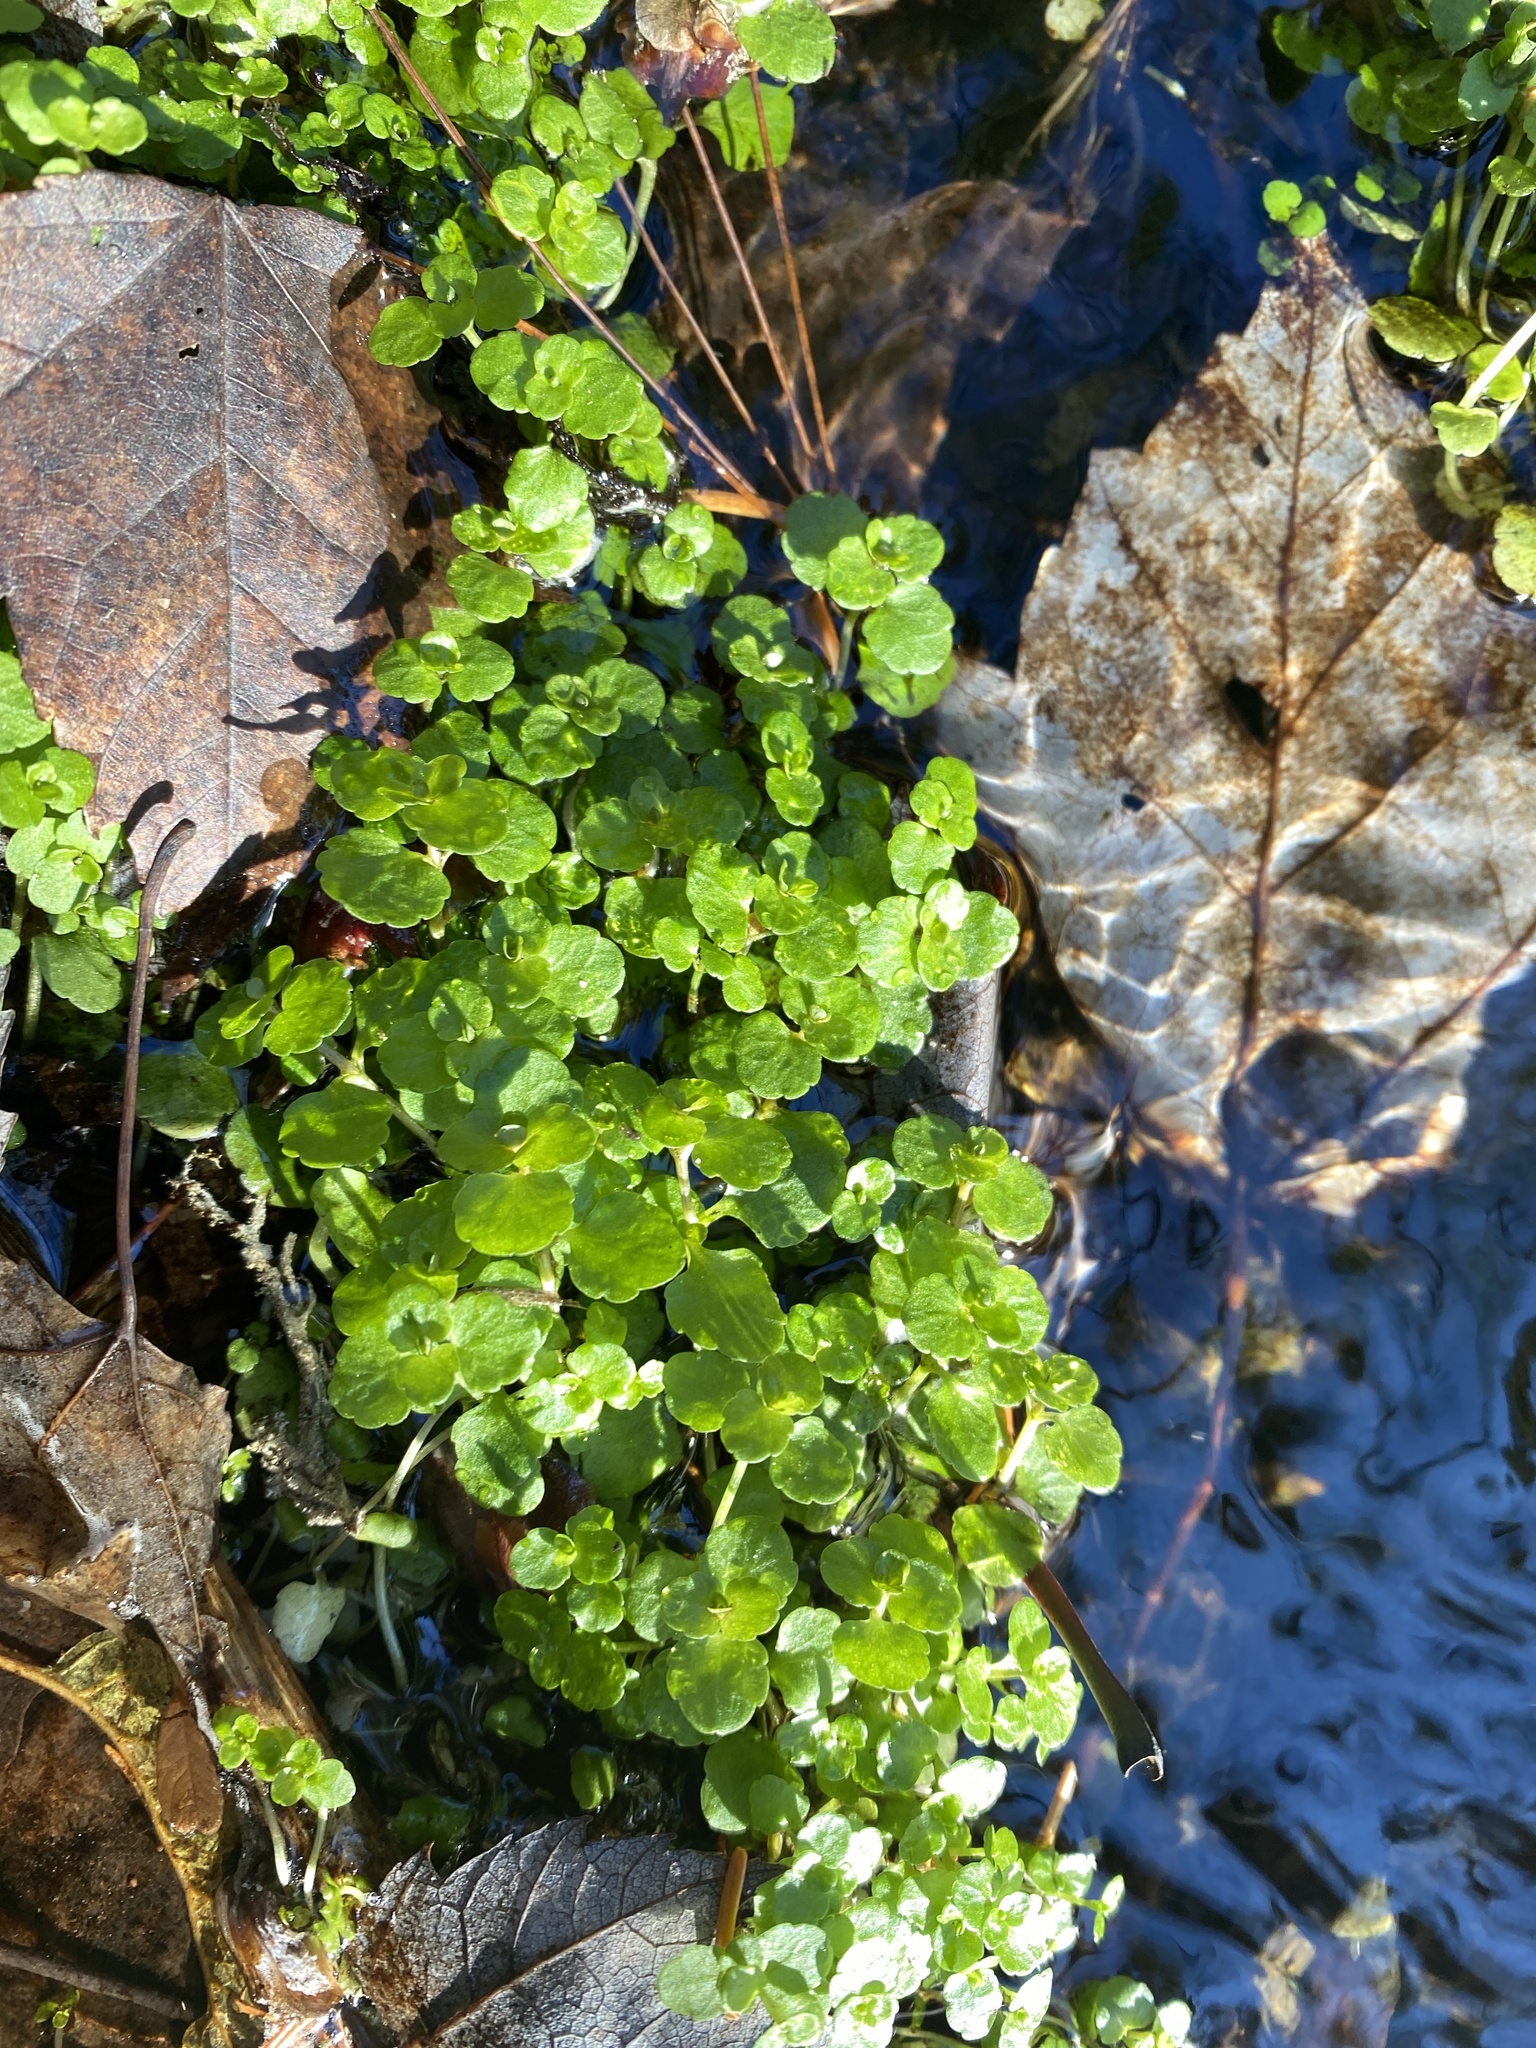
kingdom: Plantae
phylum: Tracheophyta
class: Magnoliopsida
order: Saxifragales
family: Saxifragaceae
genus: Chrysosplenium
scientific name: Chrysosplenium americanum
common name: American golden-saxifrage
